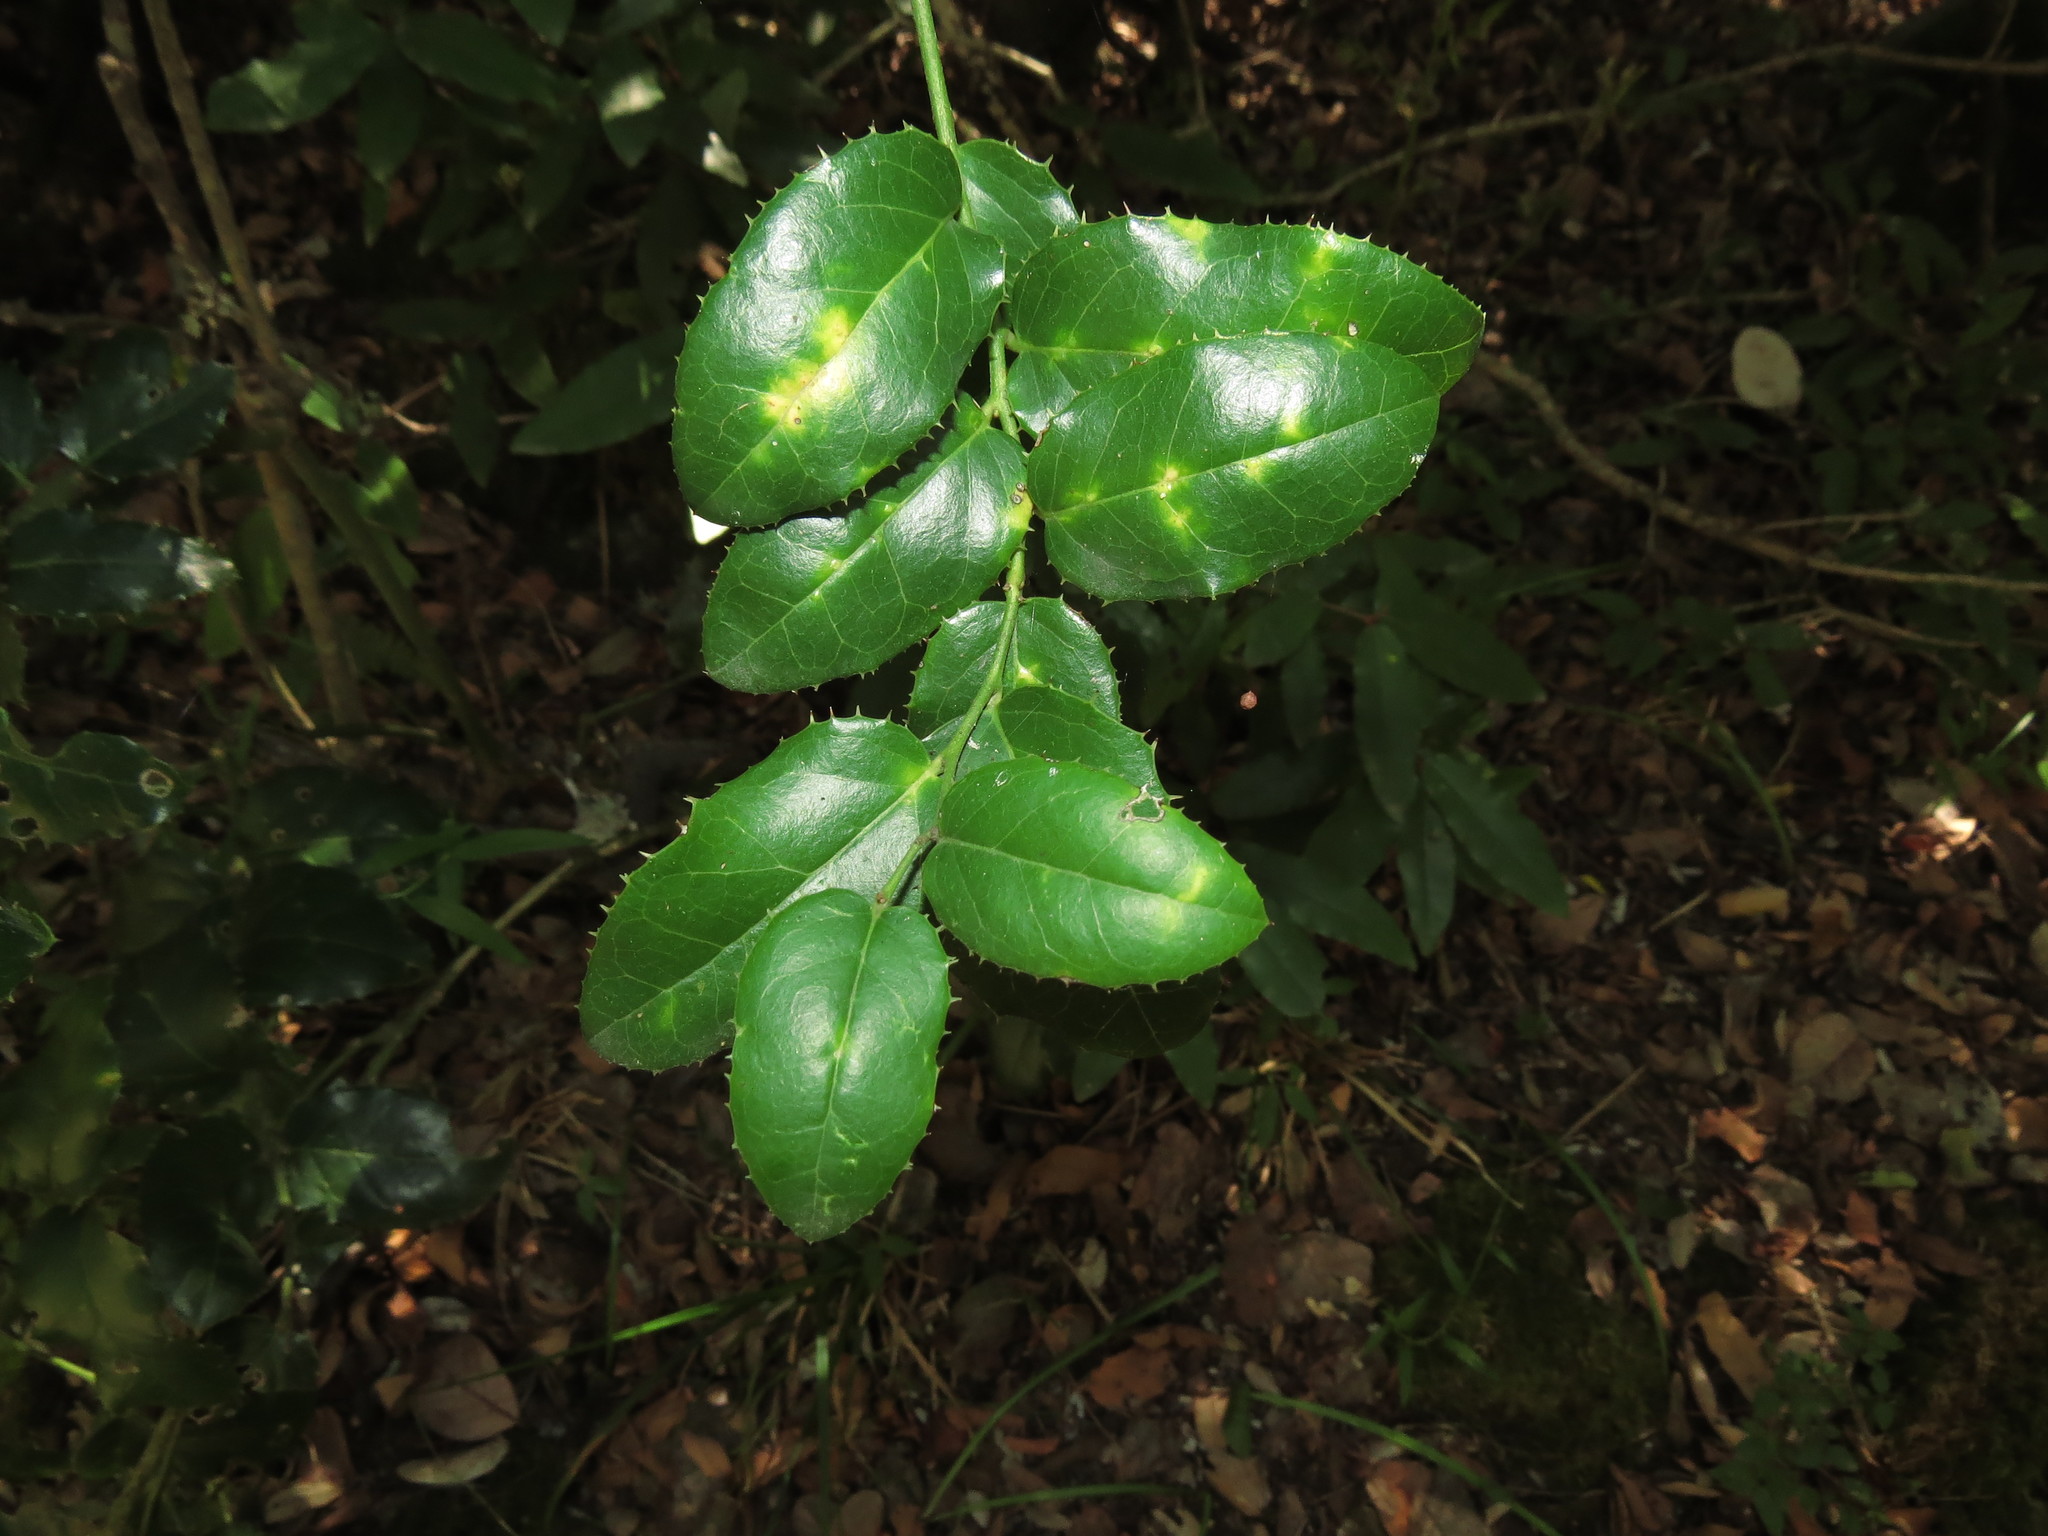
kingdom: Plantae
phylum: Tracheophyta
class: Magnoliopsida
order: Cardiopteridales
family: Cardiopteridaceae
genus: Citronella
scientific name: Citronella mucronata
